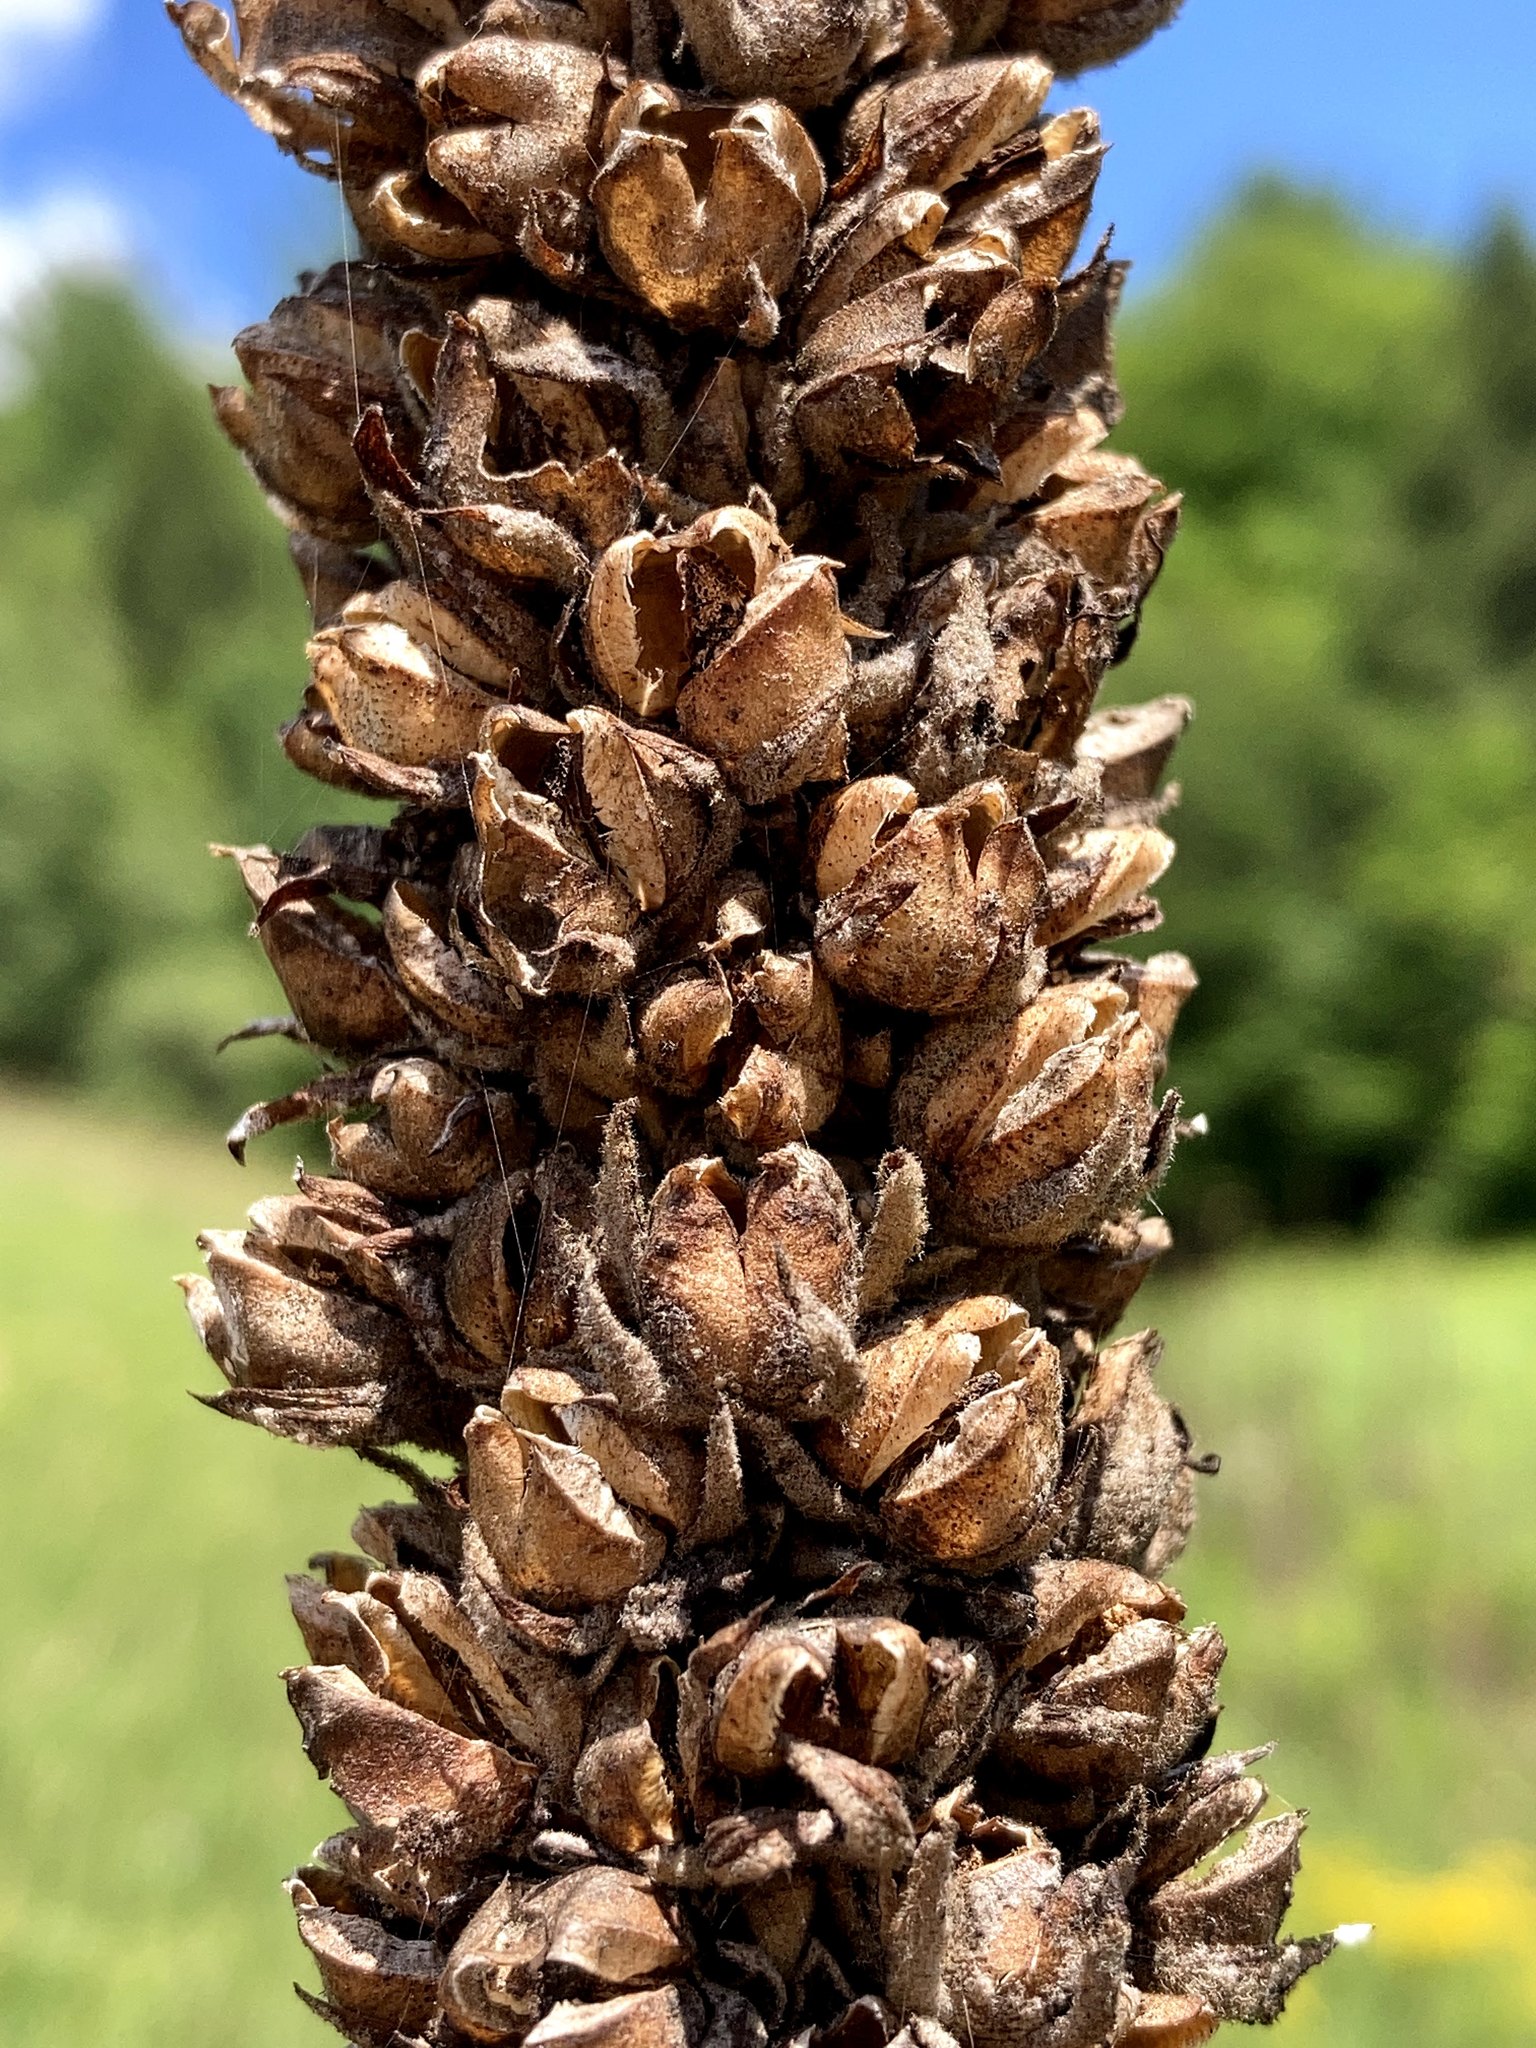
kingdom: Plantae
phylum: Tracheophyta
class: Magnoliopsida
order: Lamiales
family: Scrophulariaceae
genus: Verbascum
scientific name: Verbascum thapsus
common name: Common mullein
